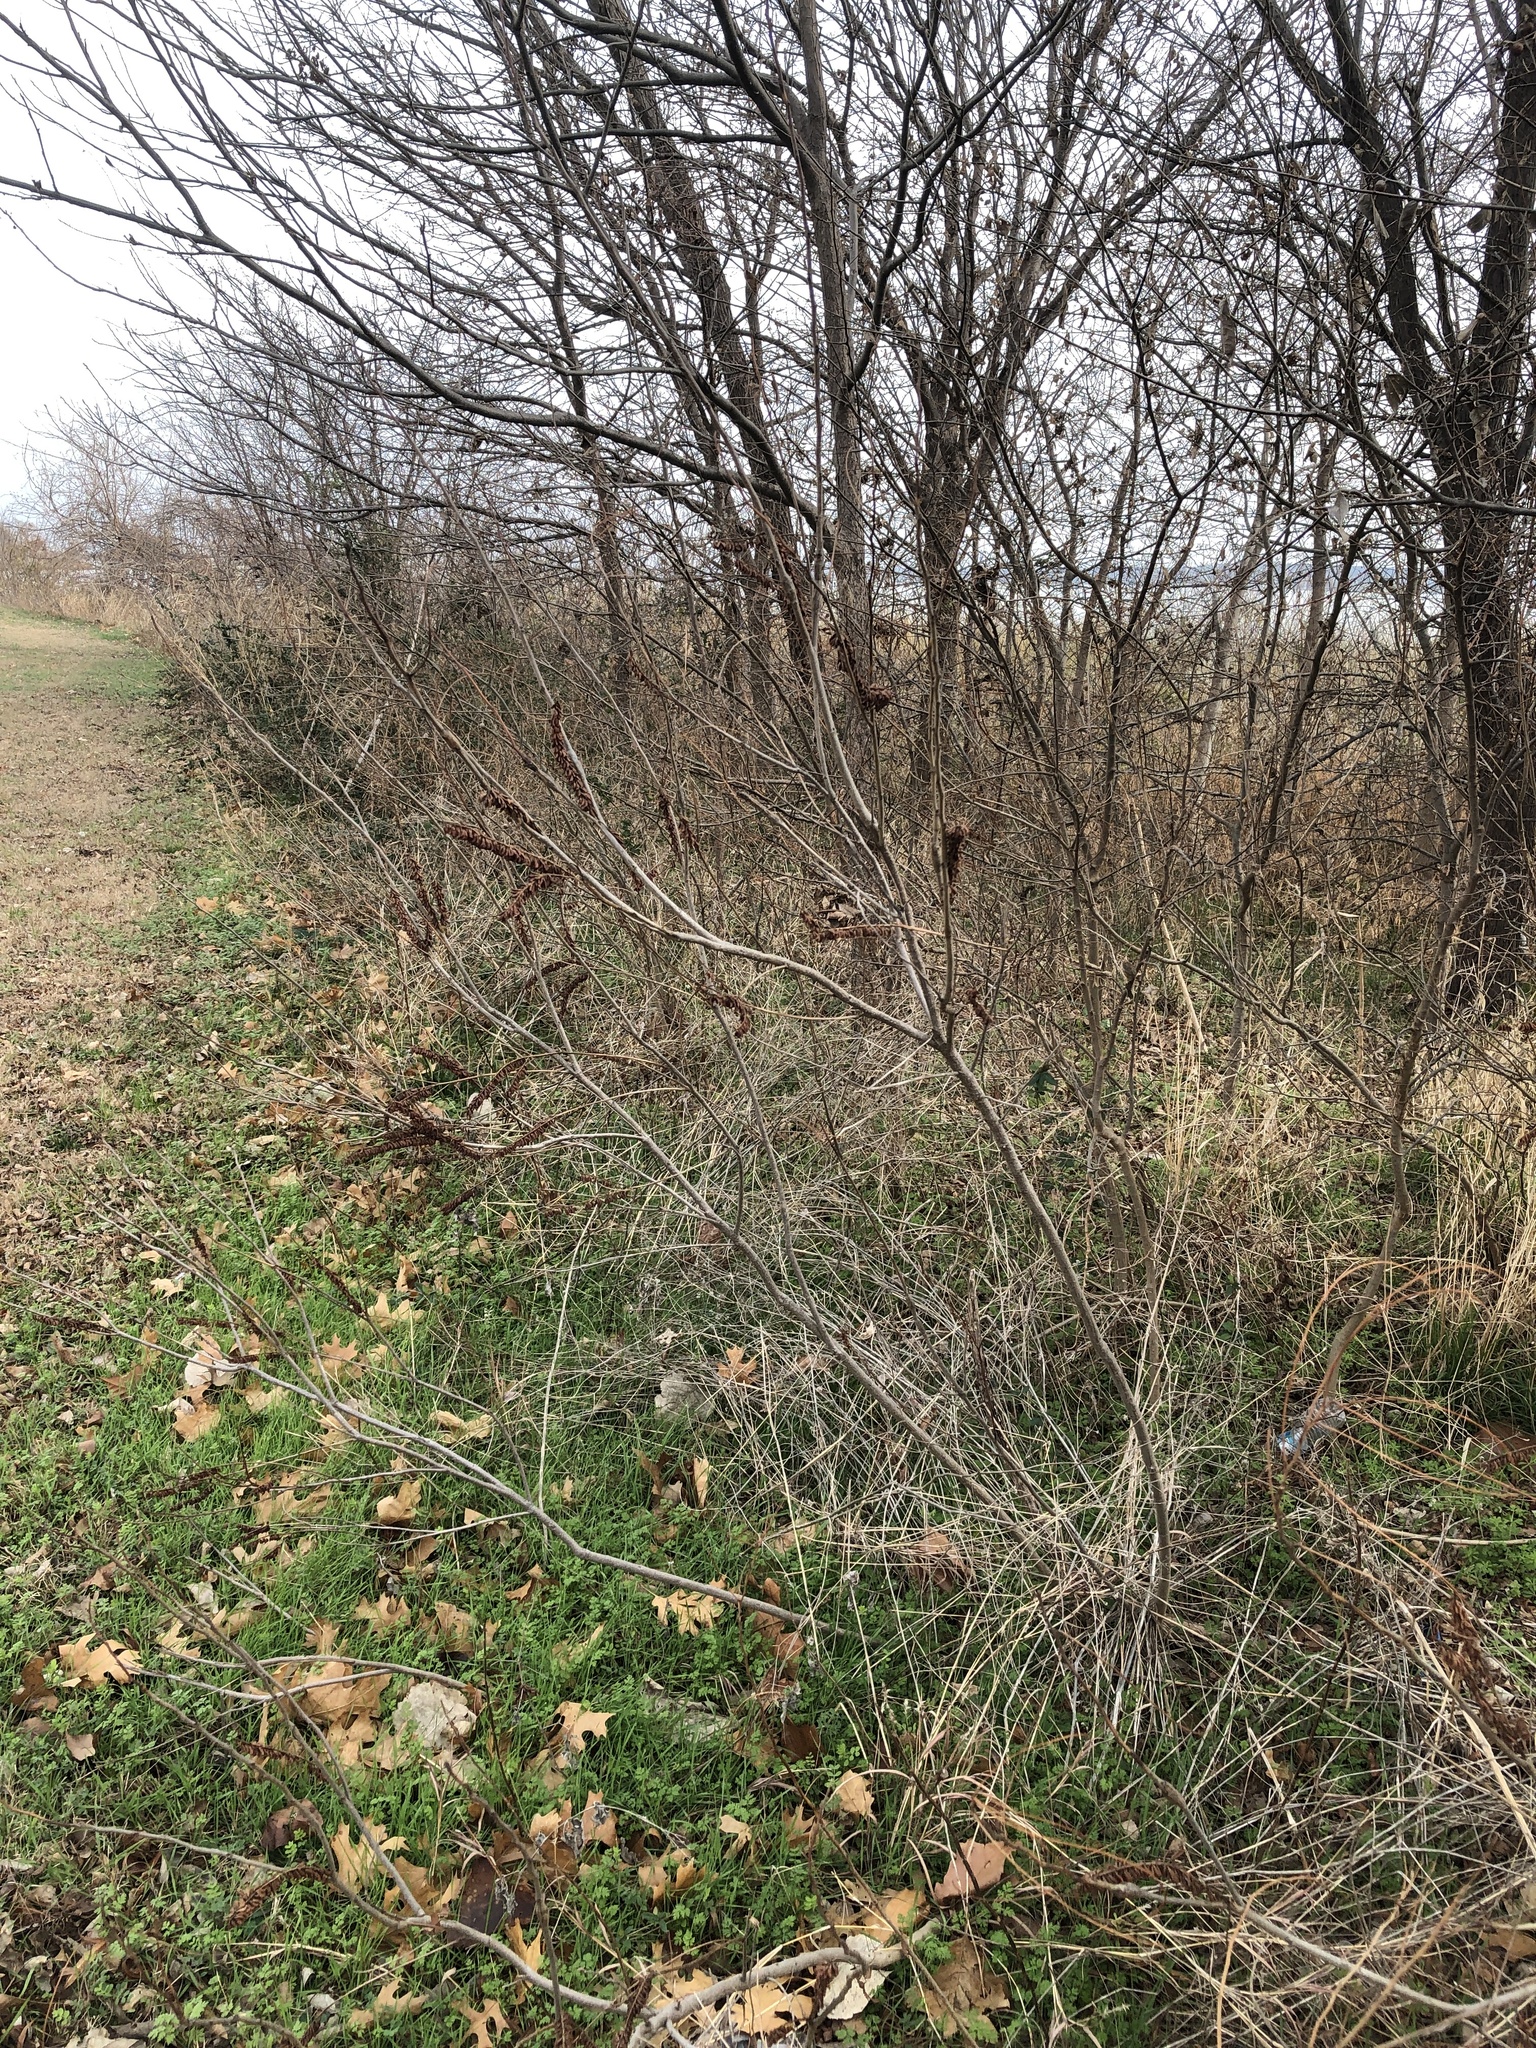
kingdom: Plantae
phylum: Tracheophyta
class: Magnoliopsida
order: Fabales
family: Fabaceae
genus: Amorpha
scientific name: Amorpha fruticosa
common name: False indigo
